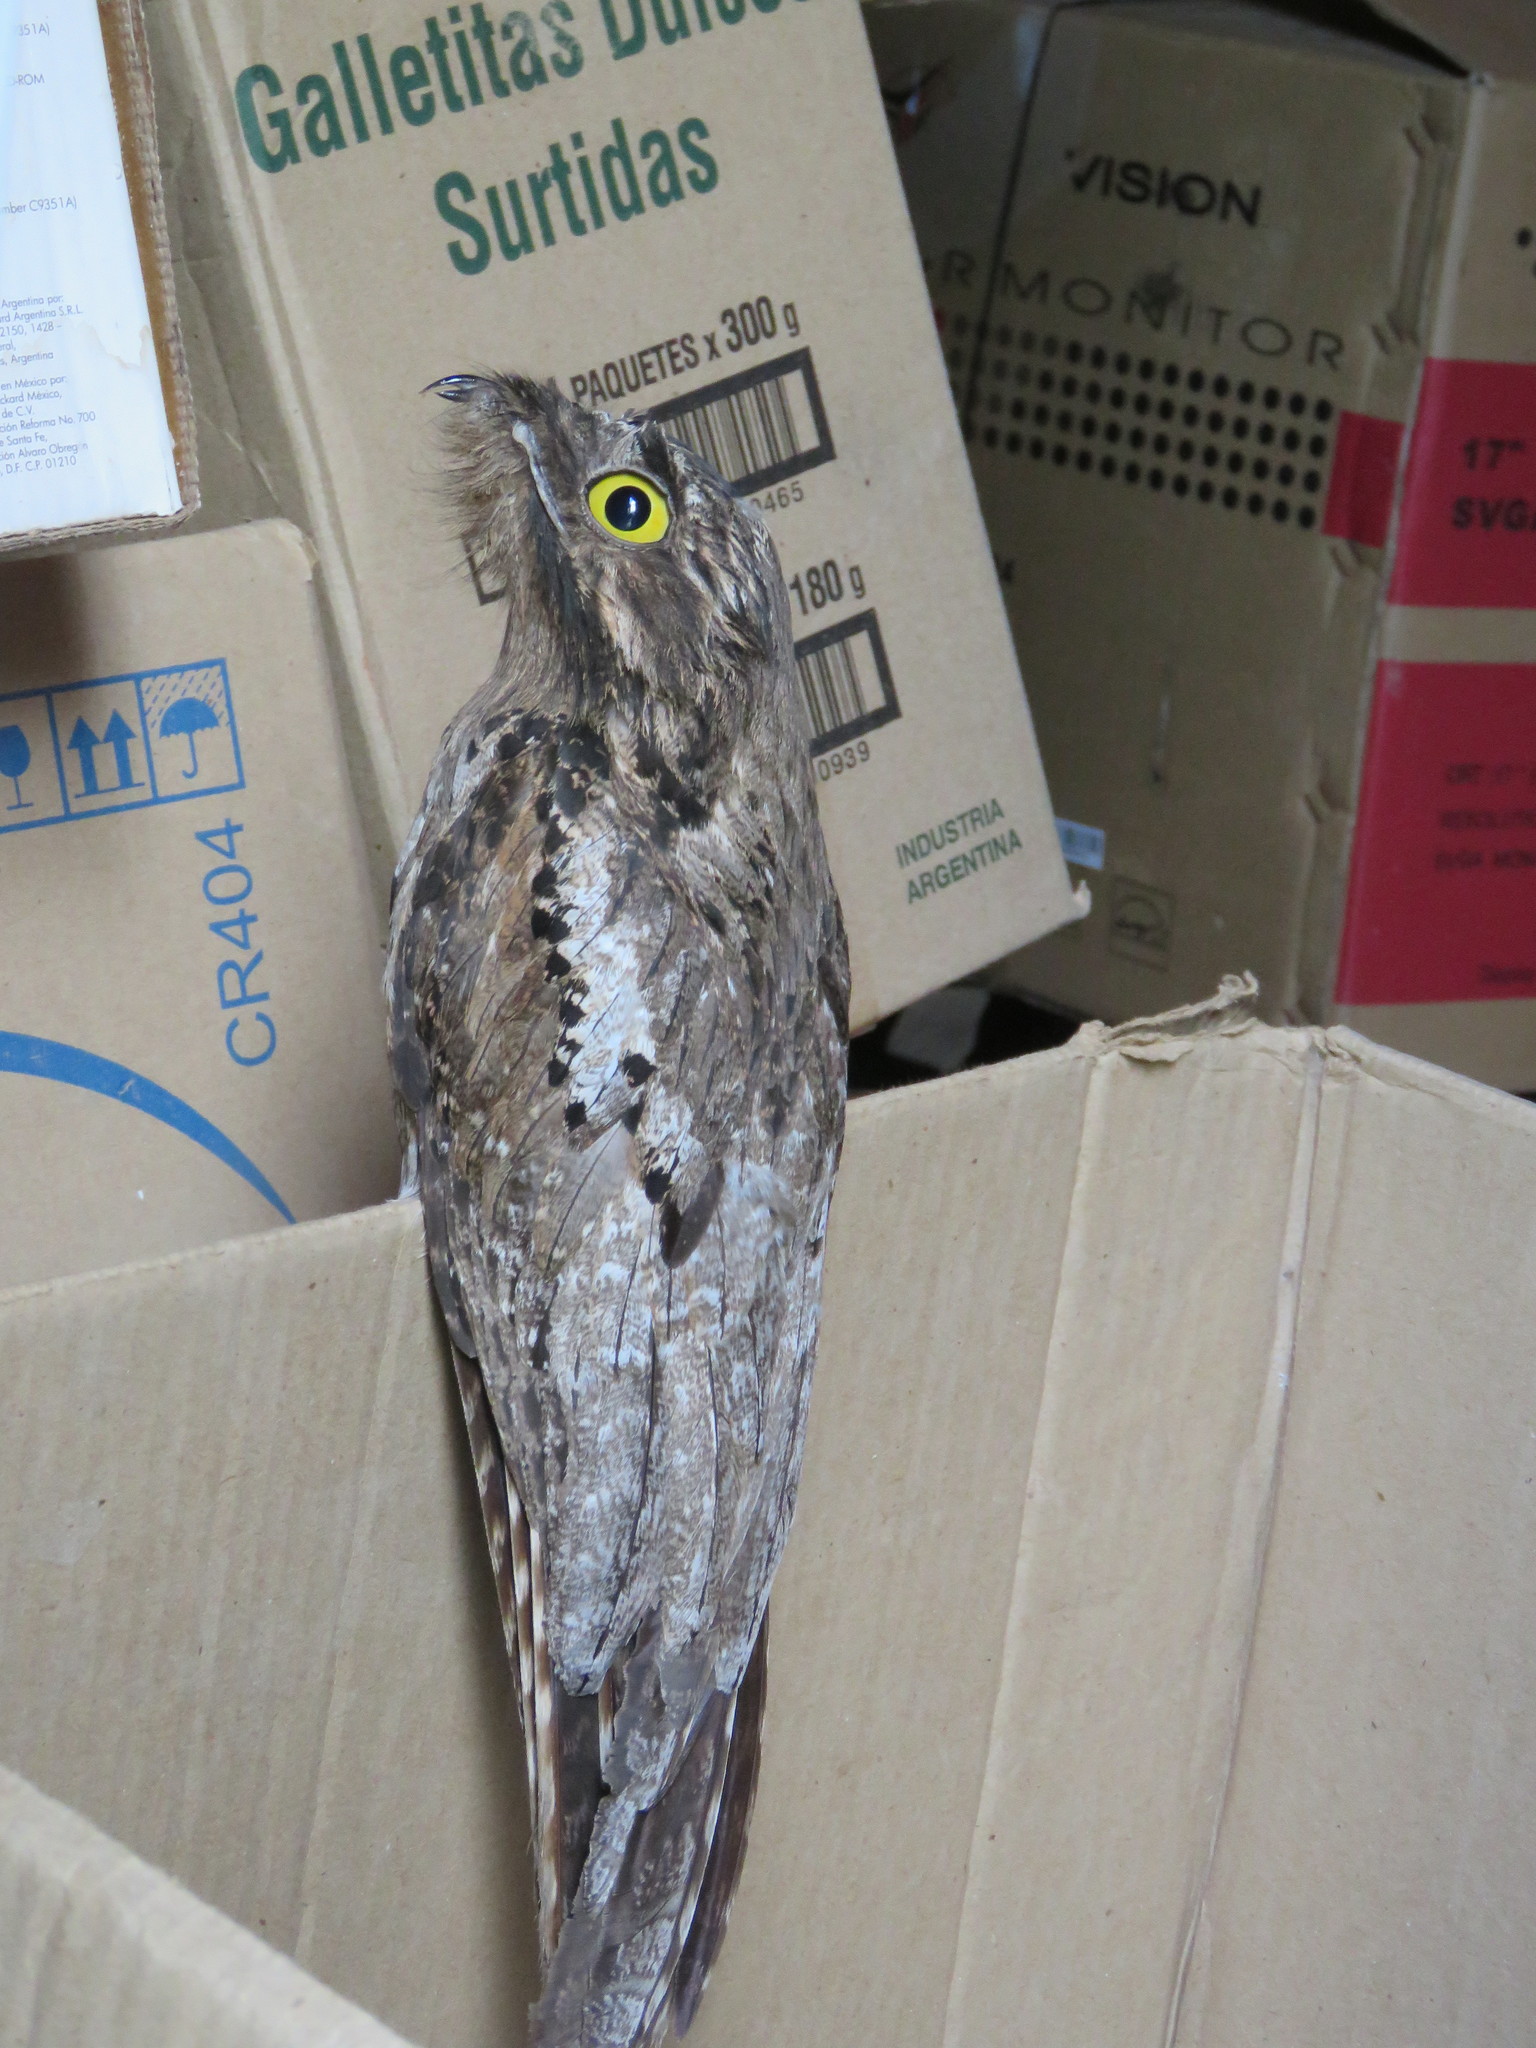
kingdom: Animalia
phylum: Chordata
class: Aves
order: Nyctibiiformes
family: Nyctibiidae
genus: Nyctibius
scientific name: Nyctibius griseus
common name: Common potoo
